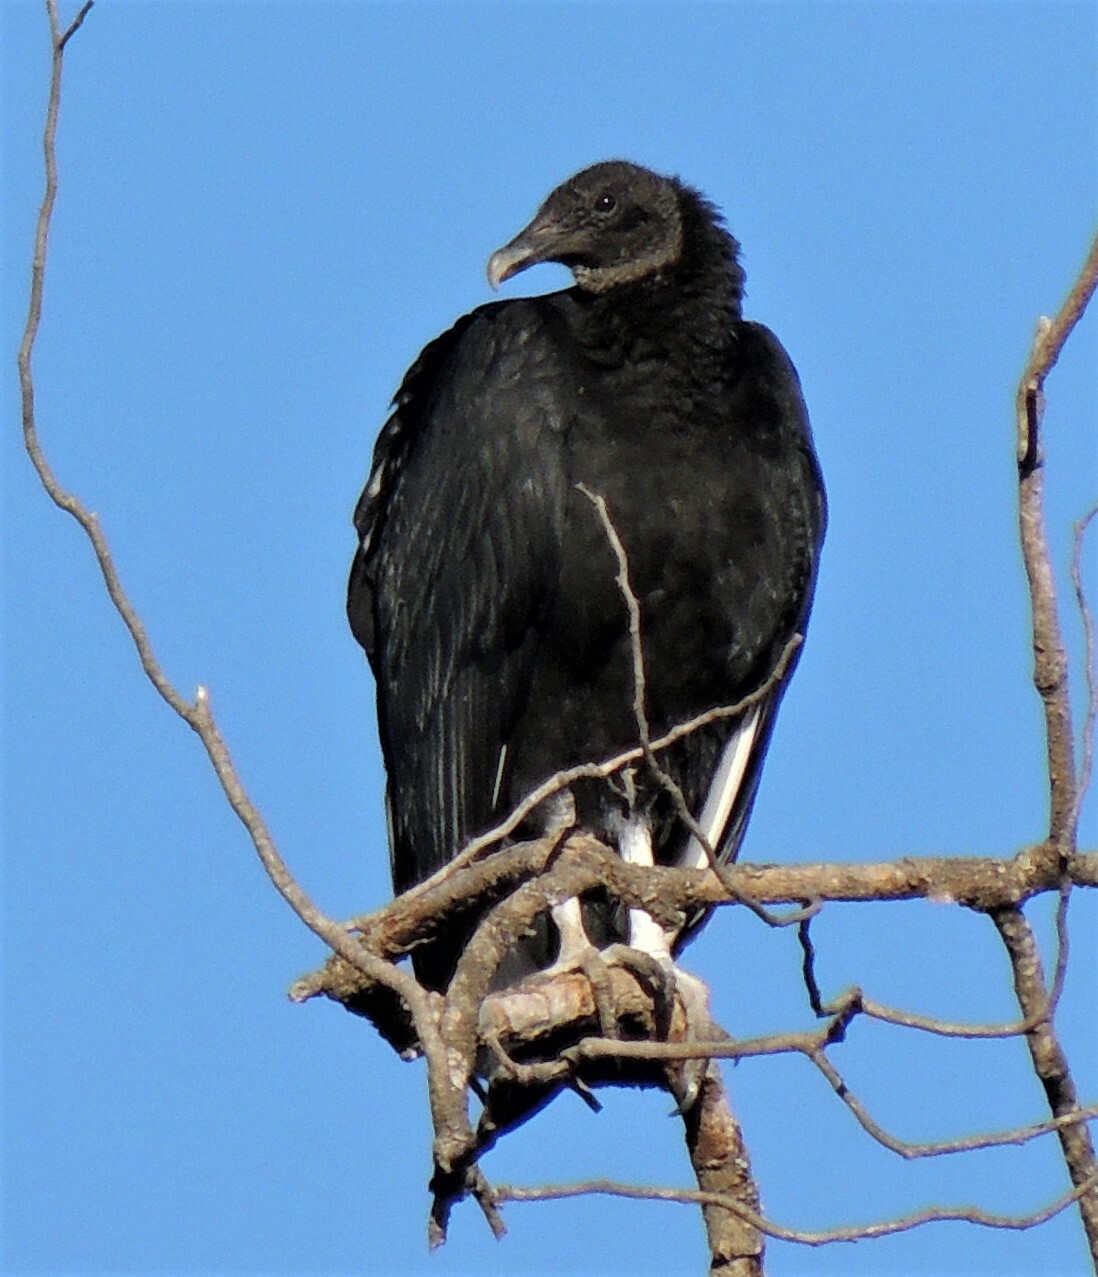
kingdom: Animalia
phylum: Chordata
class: Aves
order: Accipitriformes
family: Cathartidae
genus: Coragyps
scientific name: Coragyps atratus
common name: Black vulture
